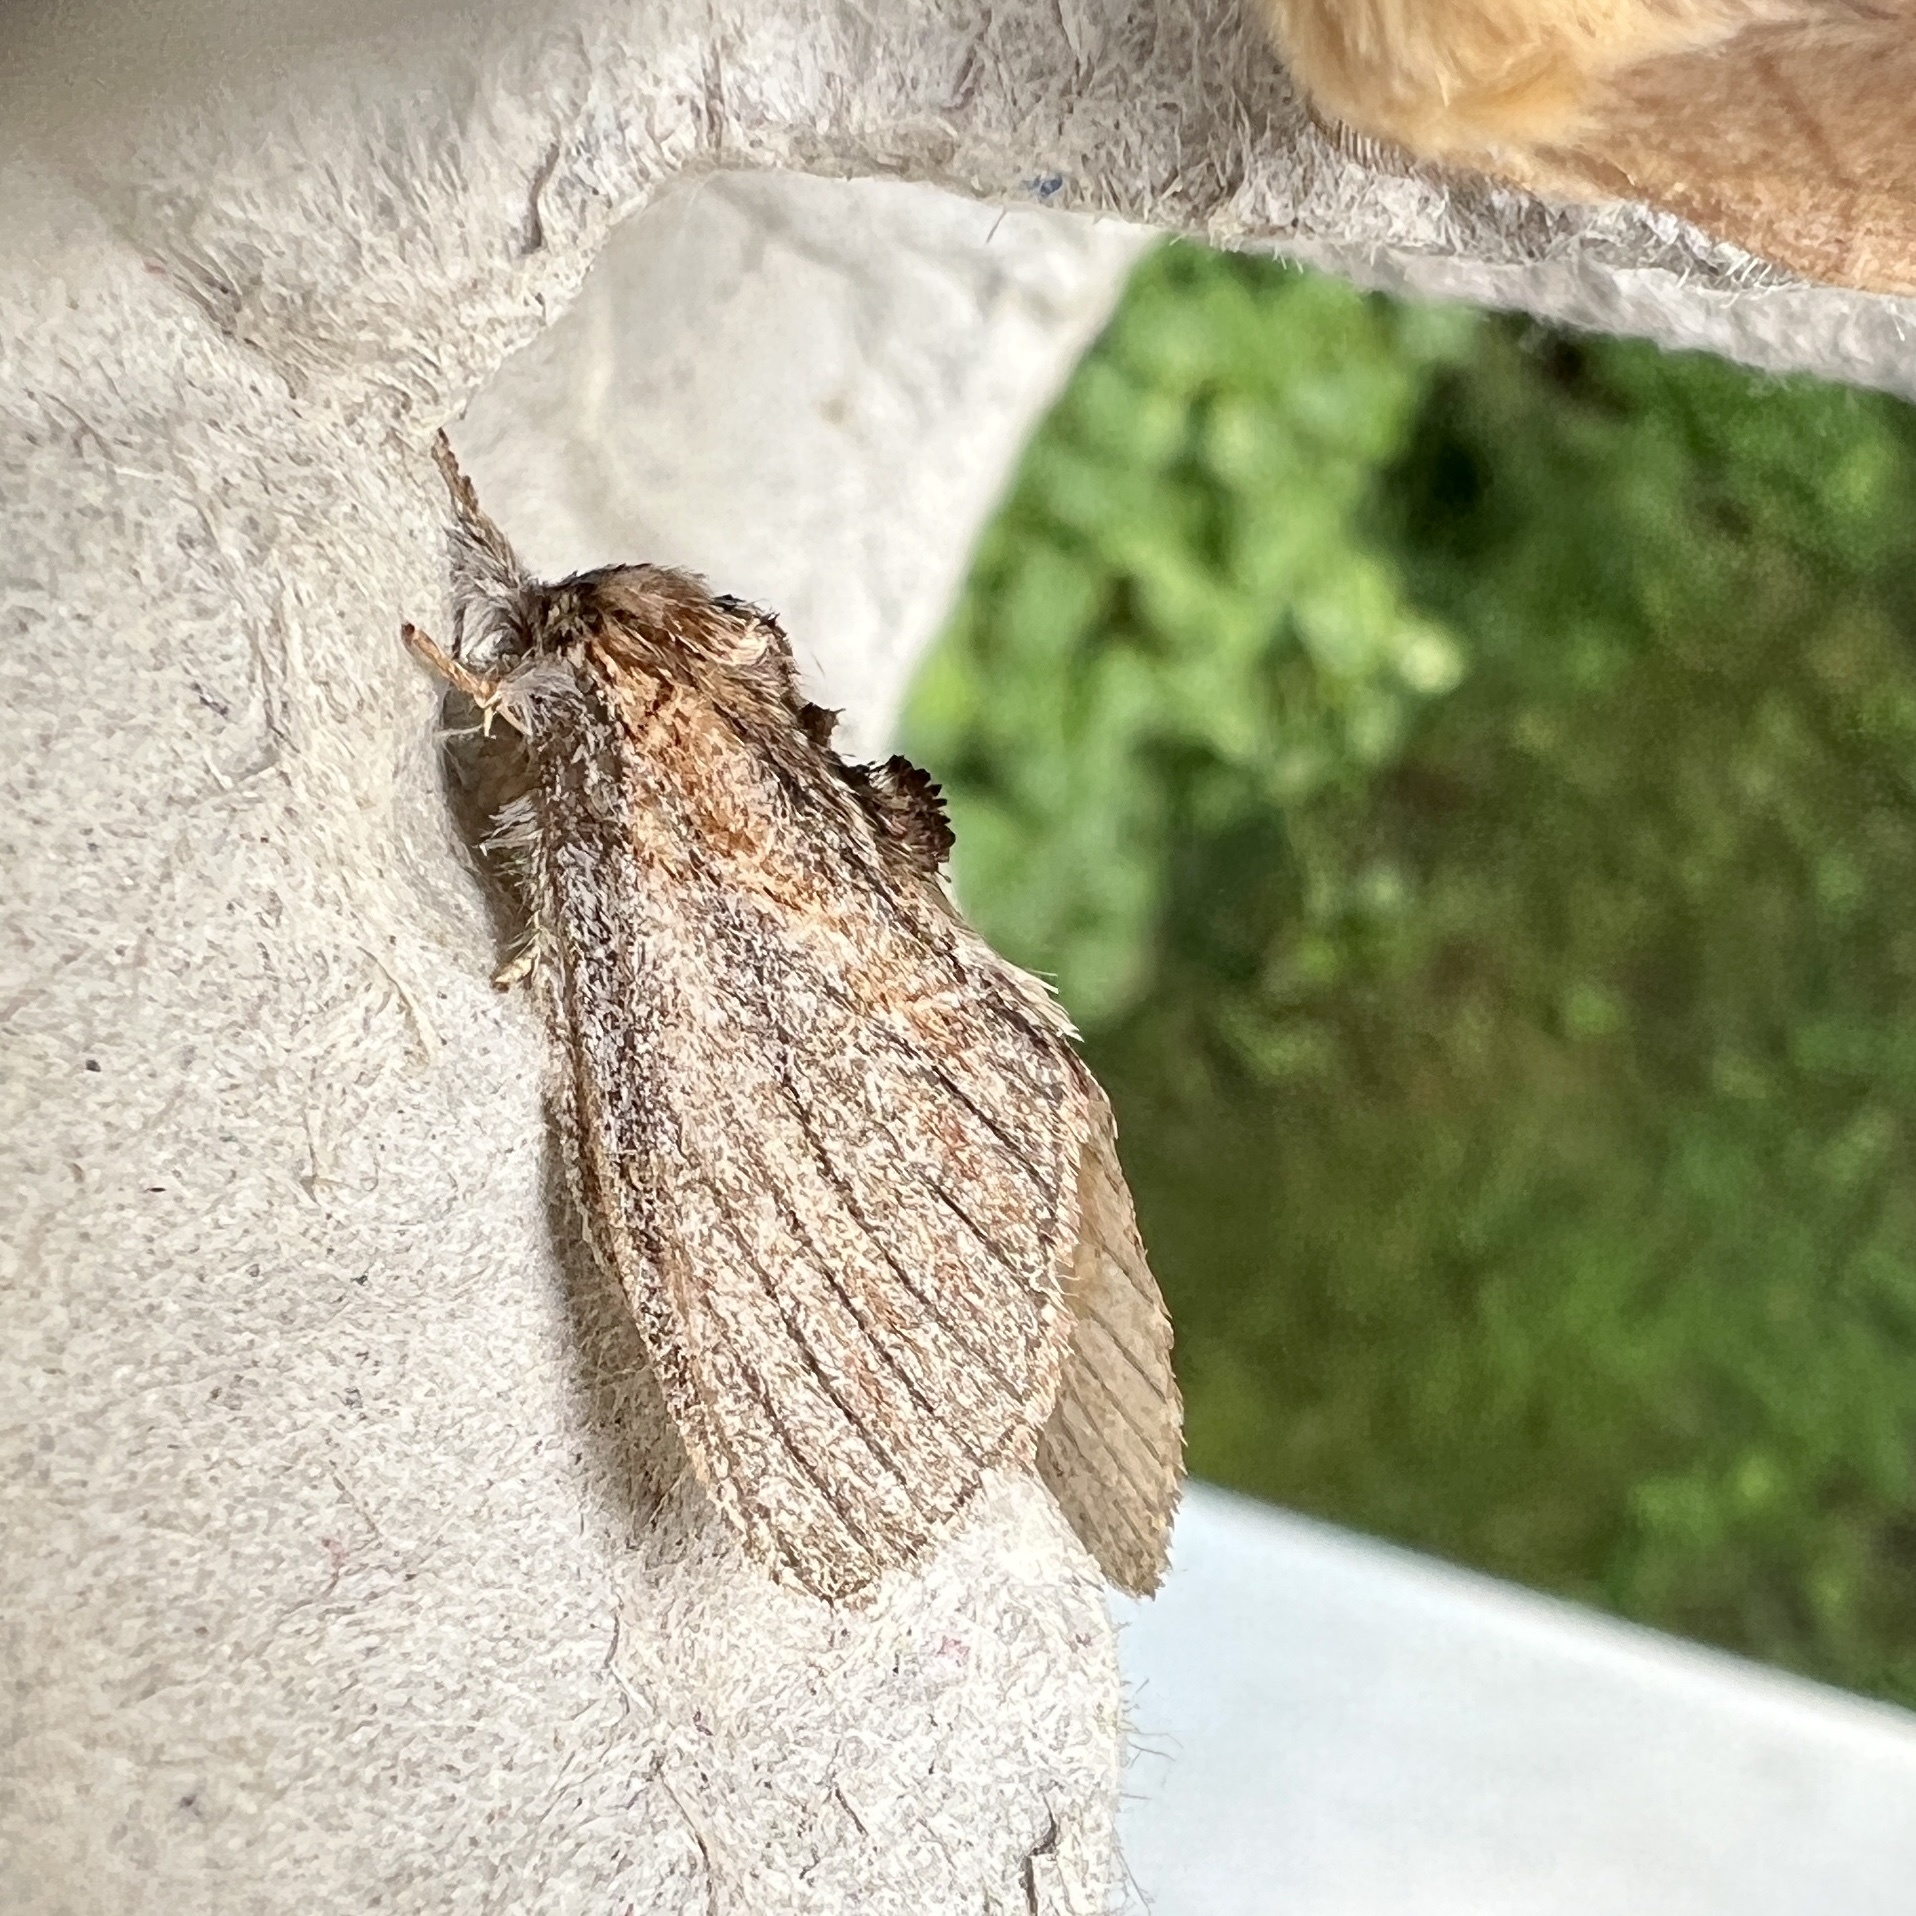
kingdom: Animalia
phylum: Arthropoda
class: Insecta
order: Lepidoptera
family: Notodontidae
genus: Peridea
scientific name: Peridea basitriens
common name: Oval-based prominent
